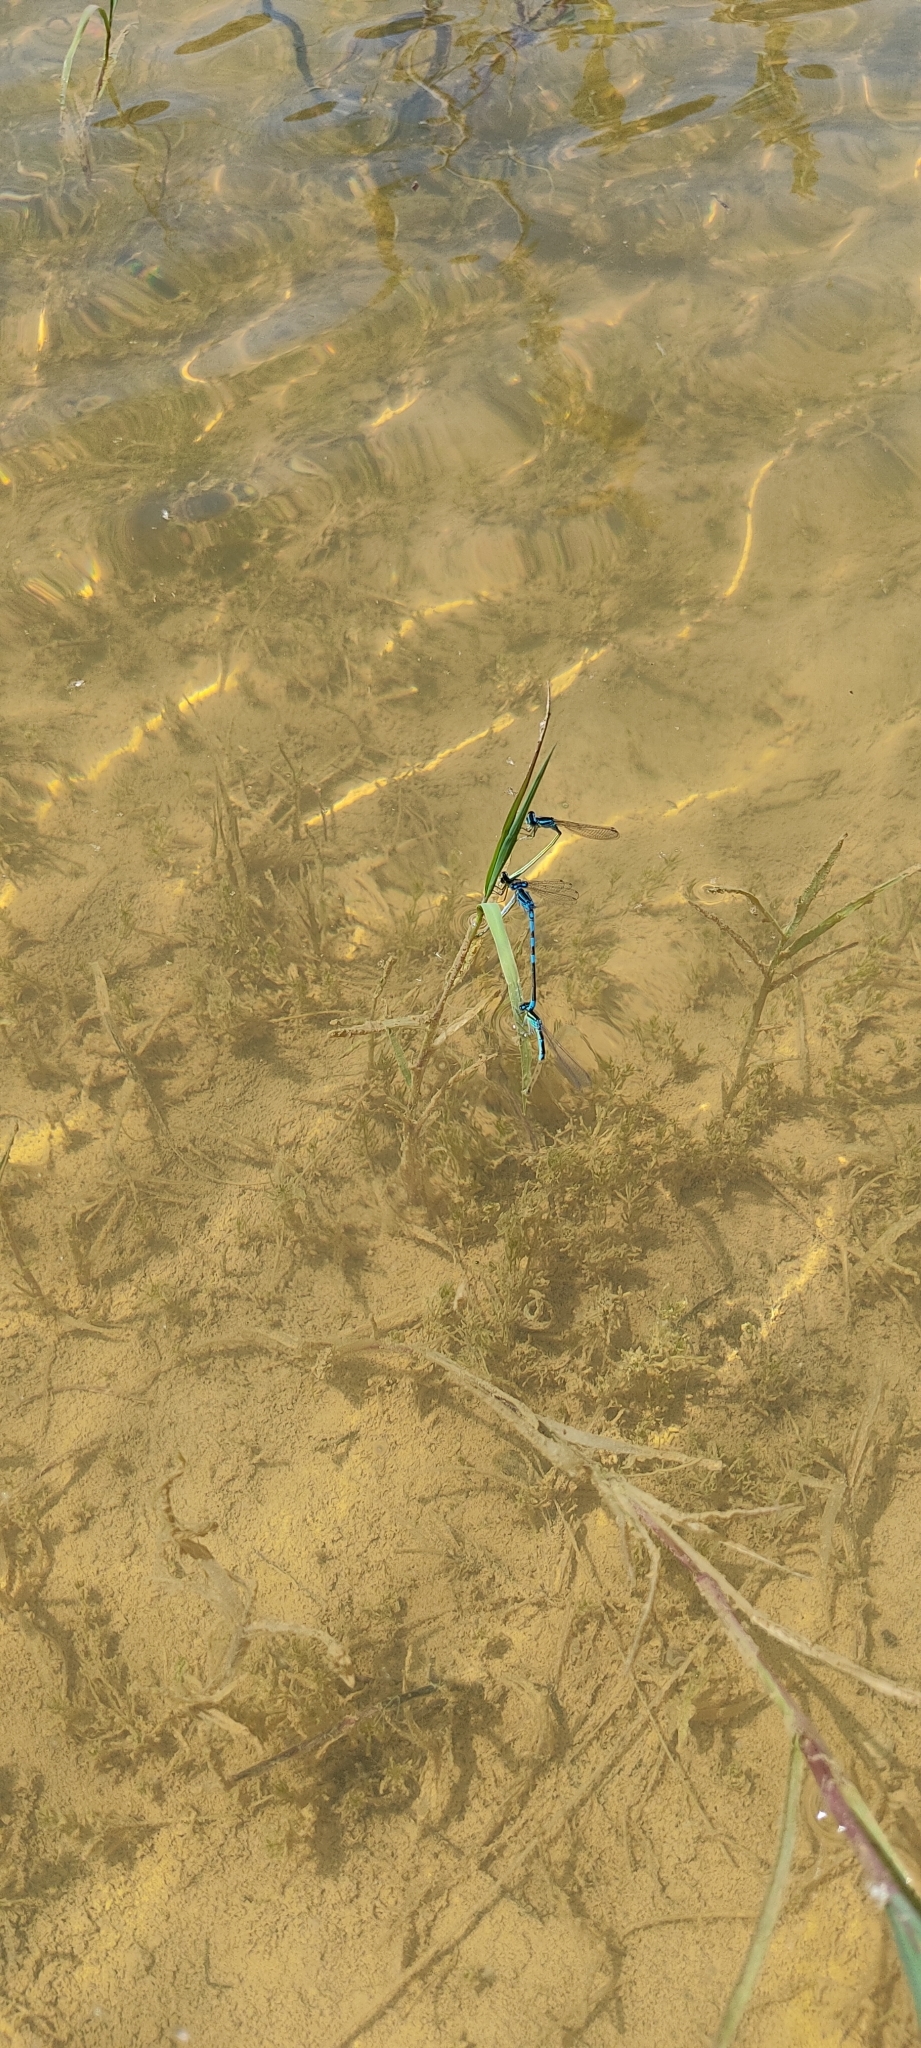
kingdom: Animalia
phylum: Arthropoda
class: Insecta
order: Odonata
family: Coenagrionidae
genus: Coenagrion
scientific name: Coenagrion scitulum
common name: Dainty bluet
